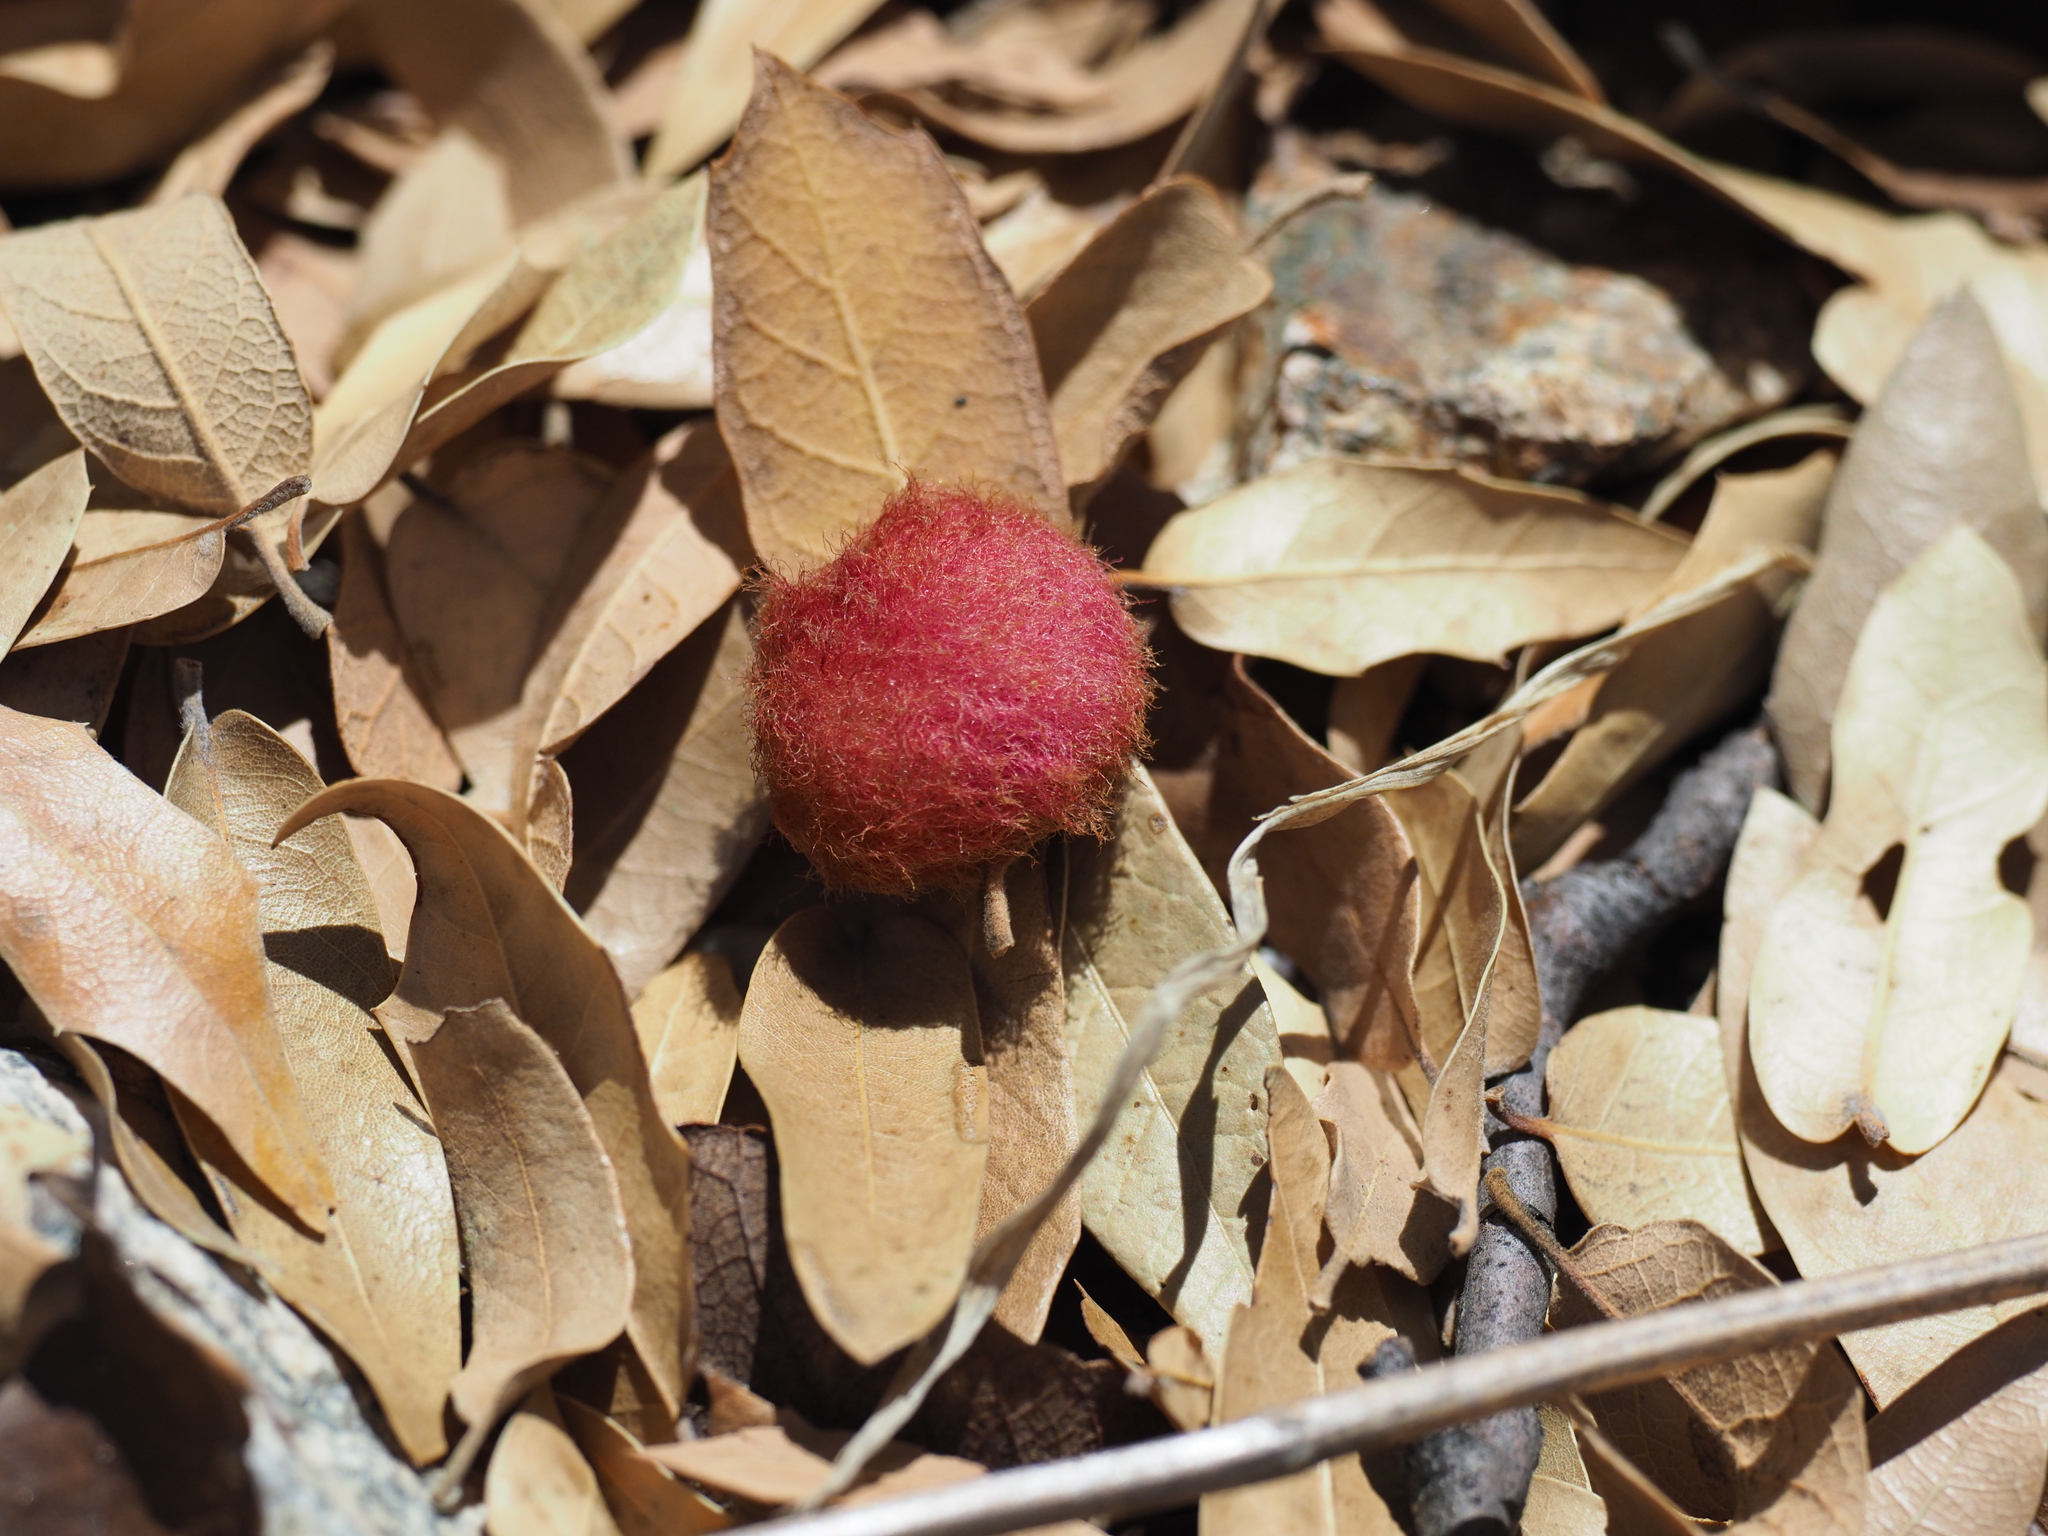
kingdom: Animalia
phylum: Arthropoda
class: Insecta
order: Hymenoptera
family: Cynipidae
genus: Cynips
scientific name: Cynips
